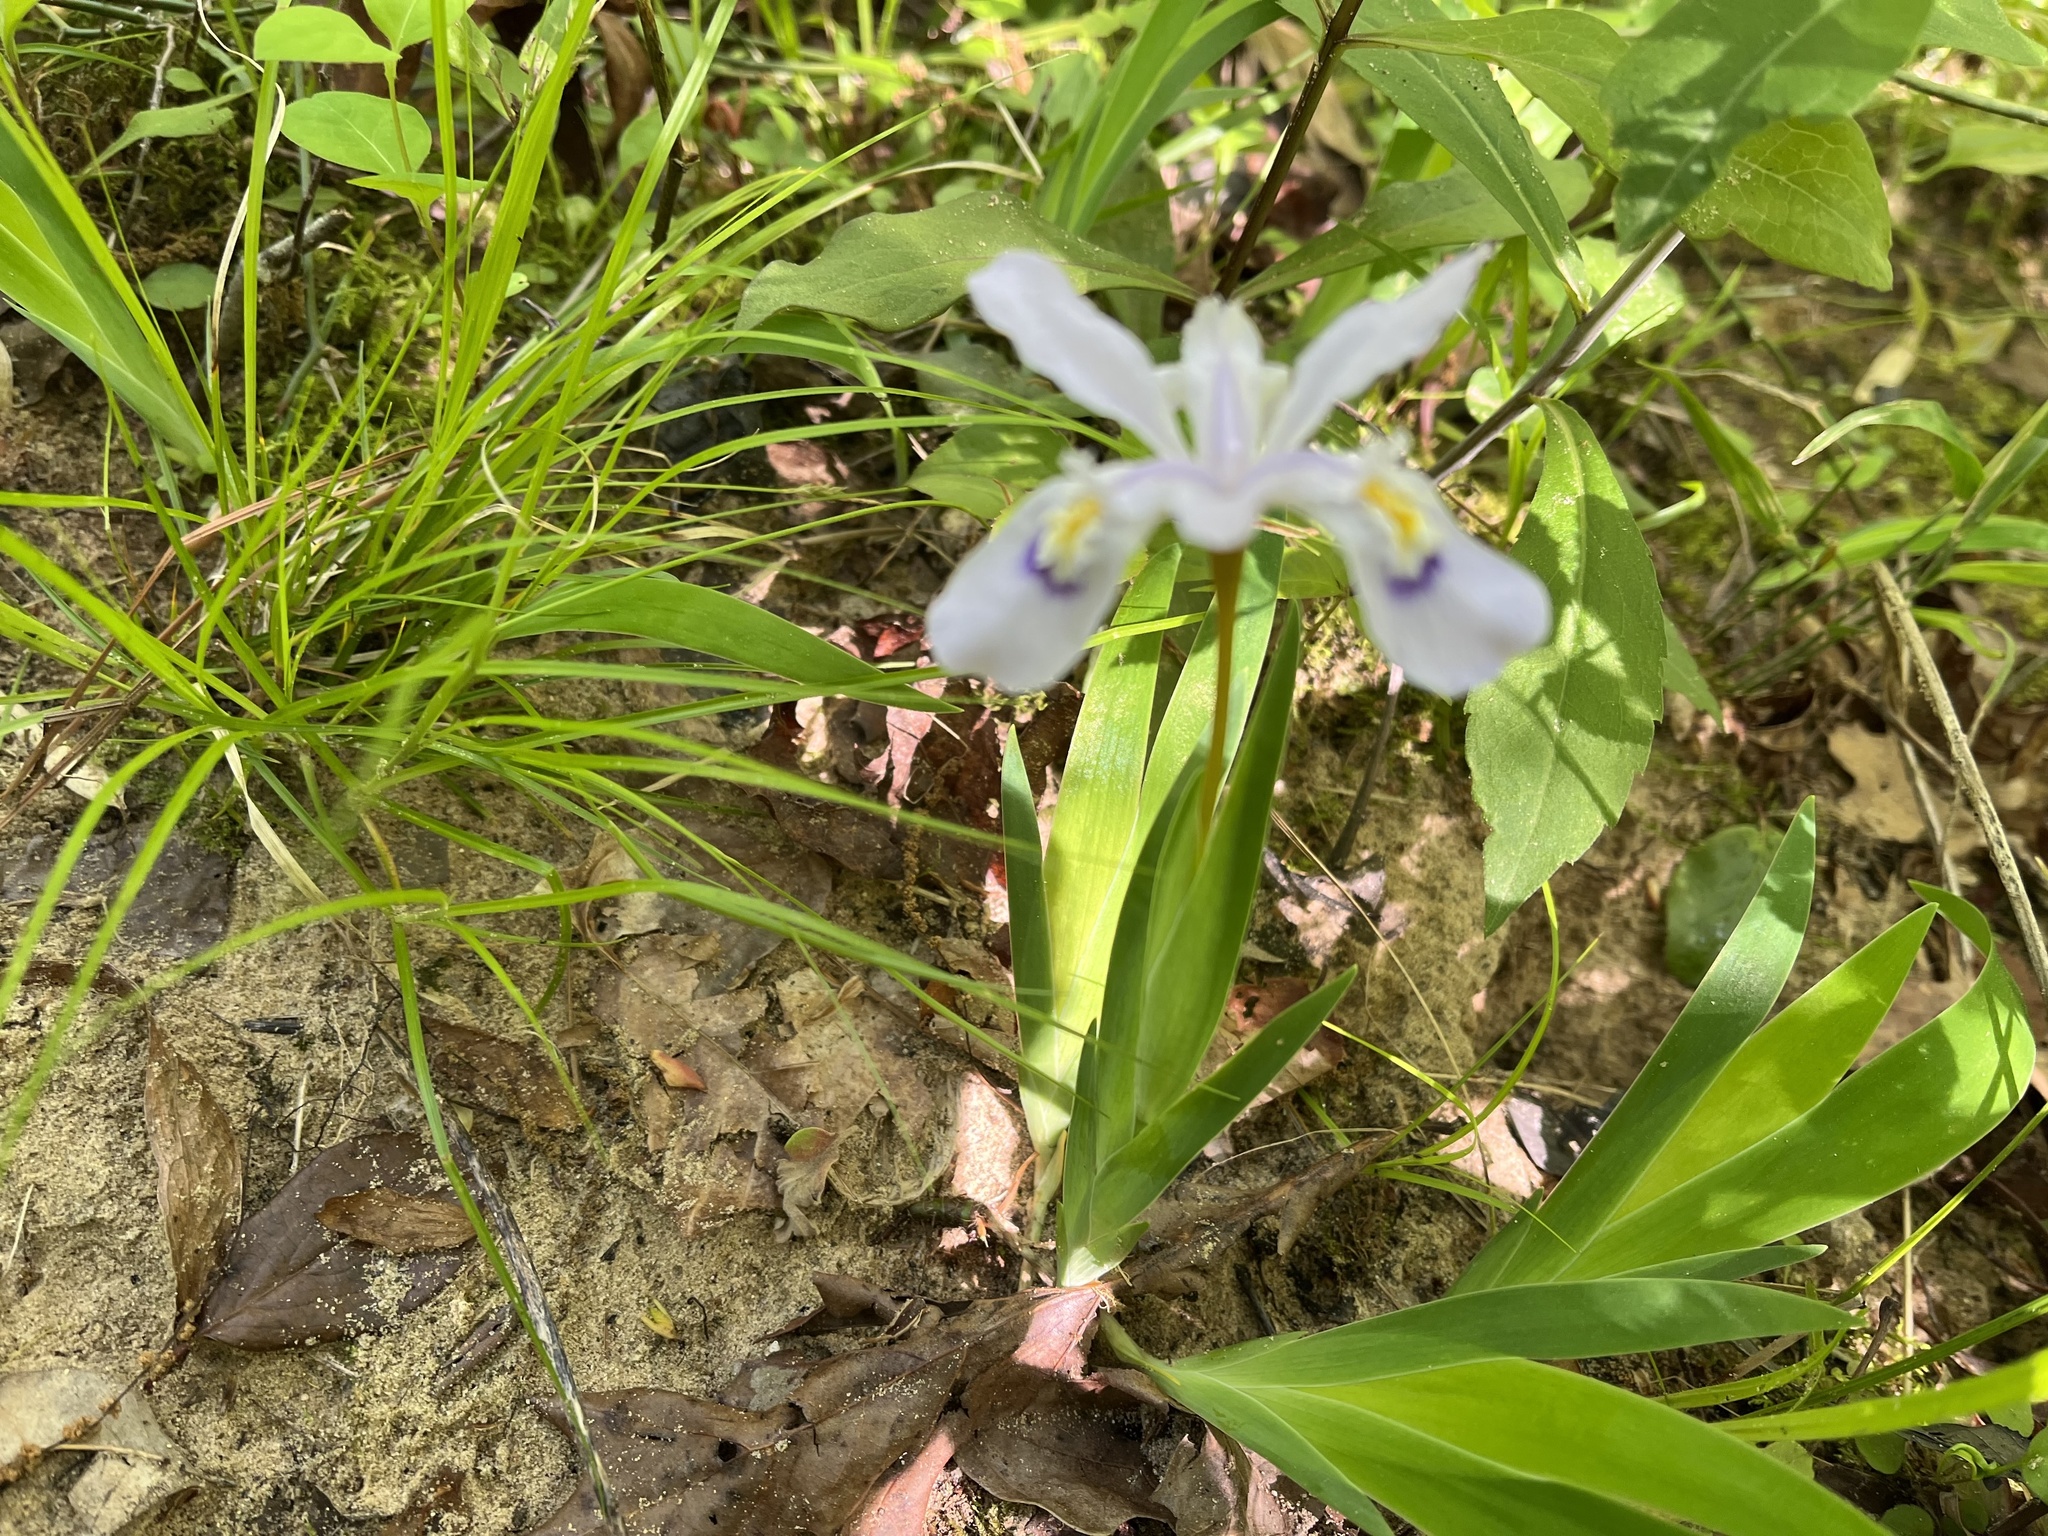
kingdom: Plantae
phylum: Tracheophyta
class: Liliopsida
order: Asparagales
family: Iridaceae
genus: Iris
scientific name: Iris cristata
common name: Crested iris
